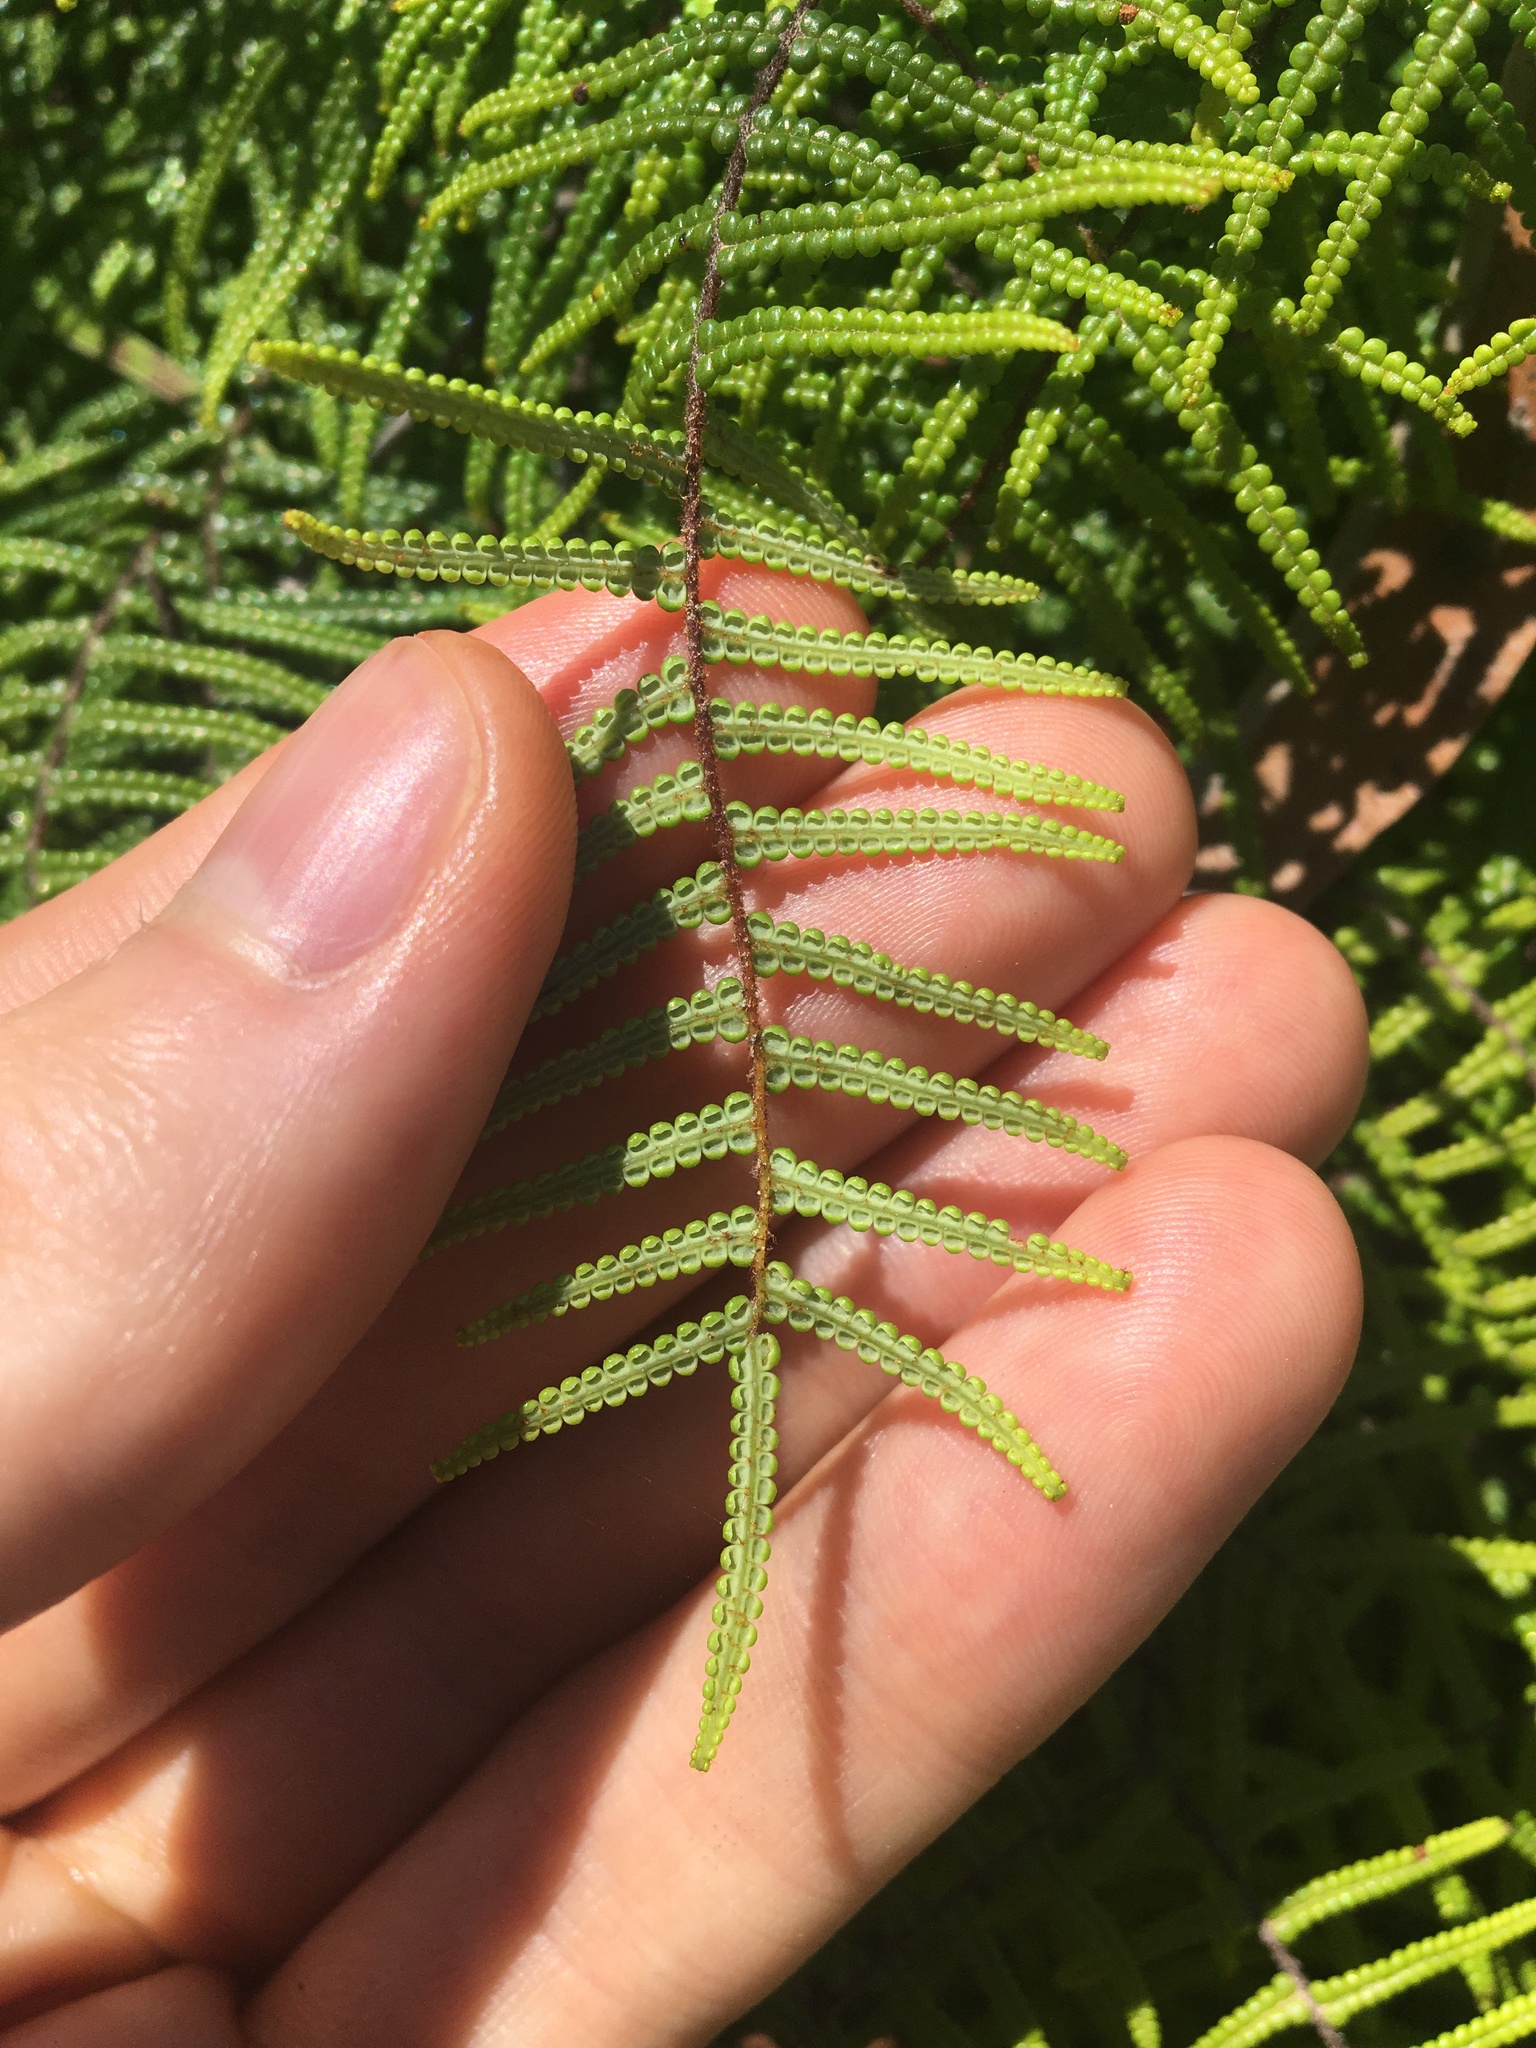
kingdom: Plantae
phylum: Tracheophyta
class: Polypodiopsida
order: Gleicheniales
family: Gleicheniaceae
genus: Gleichenia
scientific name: Gleichenia dicarpa
